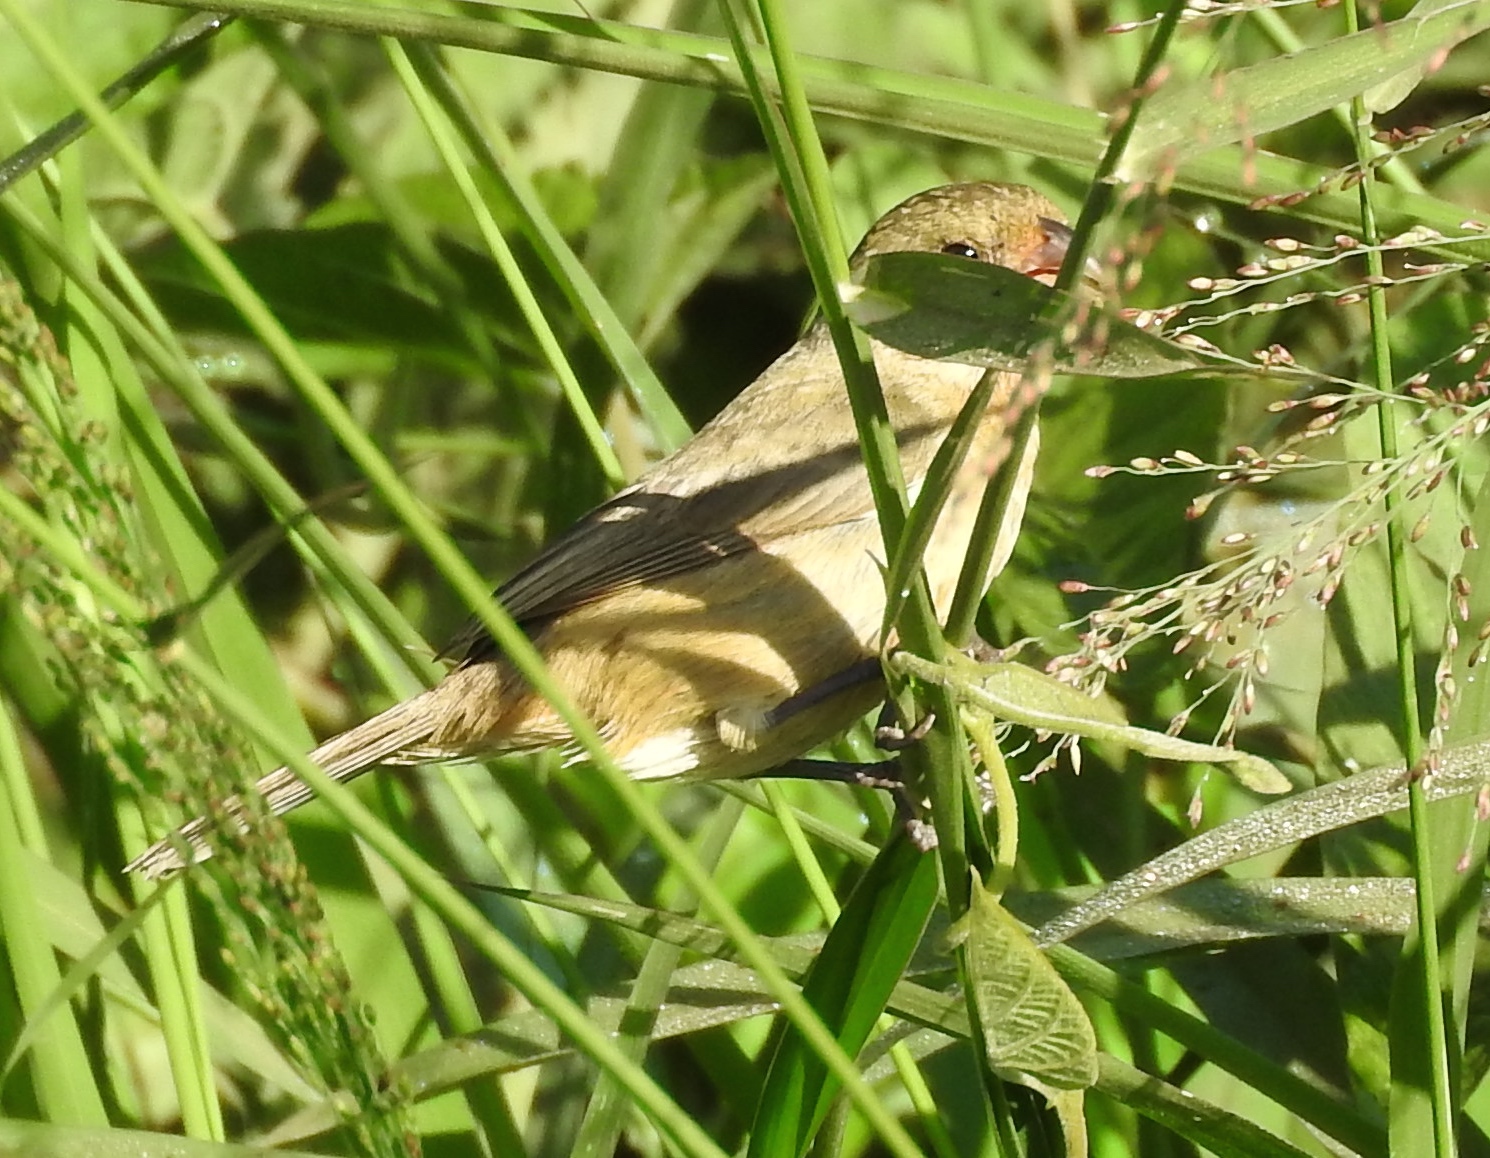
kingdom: Animalia
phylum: Chordata
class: Aves
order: Passeriformes
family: Thraupidae
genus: Sporophila
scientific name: Sporophila torqueola
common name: White-collared seedeater
